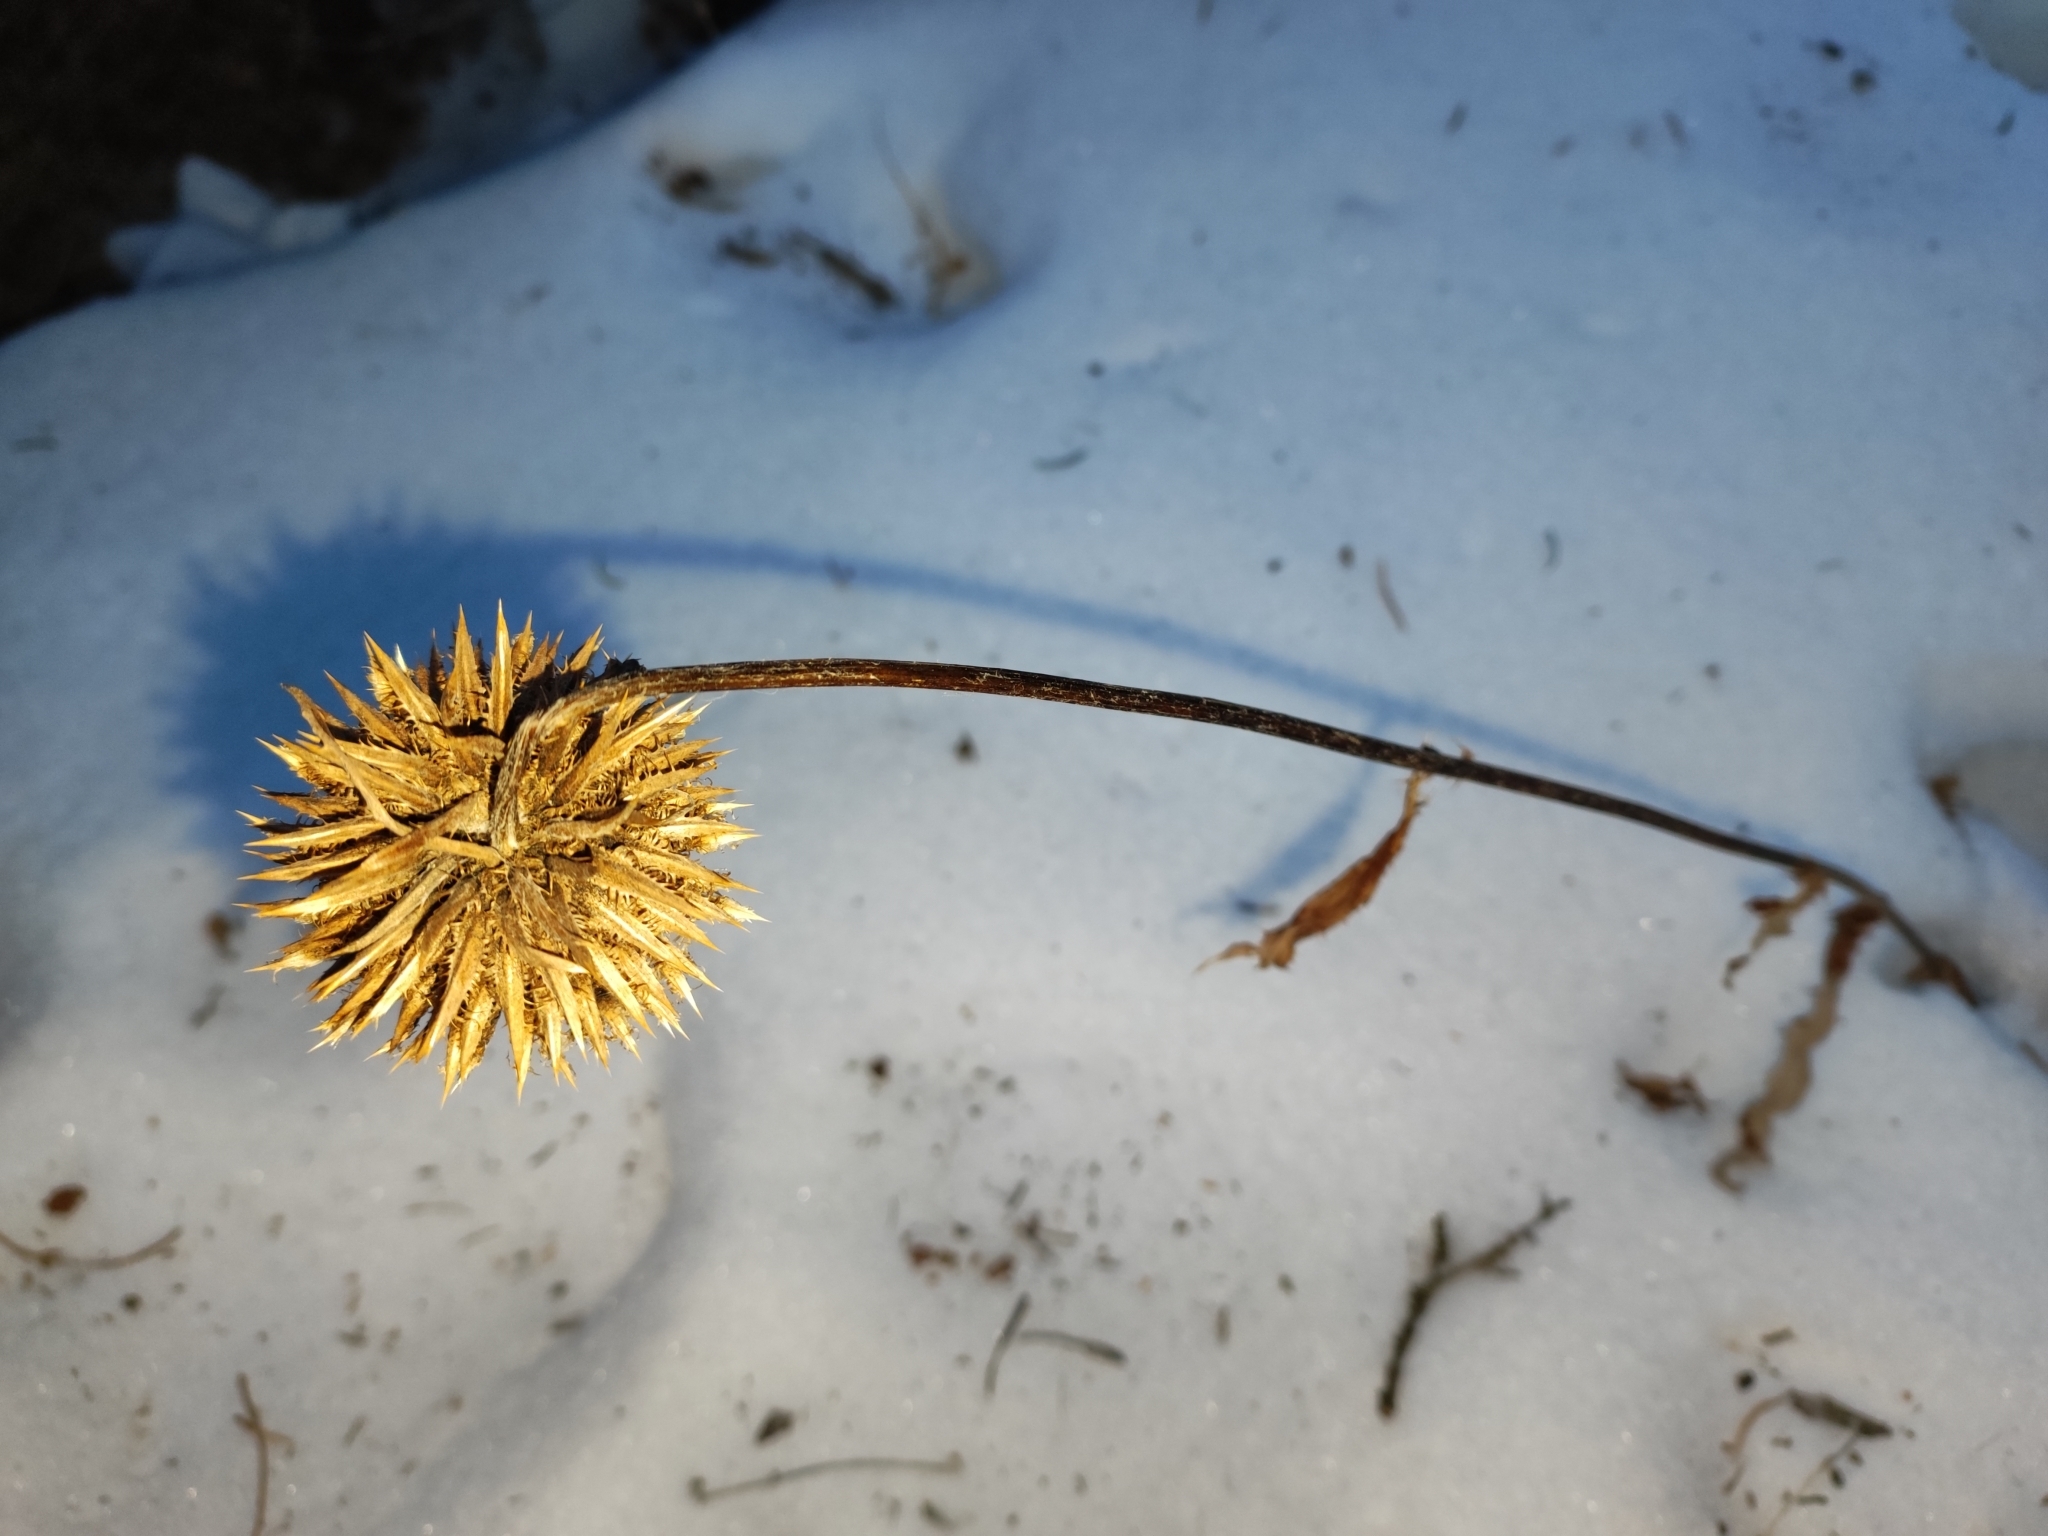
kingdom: Plantae
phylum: Tracheophyta
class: Magnoliopsida
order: Asterales
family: Asteraceae
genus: Alfredia
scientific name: Alfredia nivea
